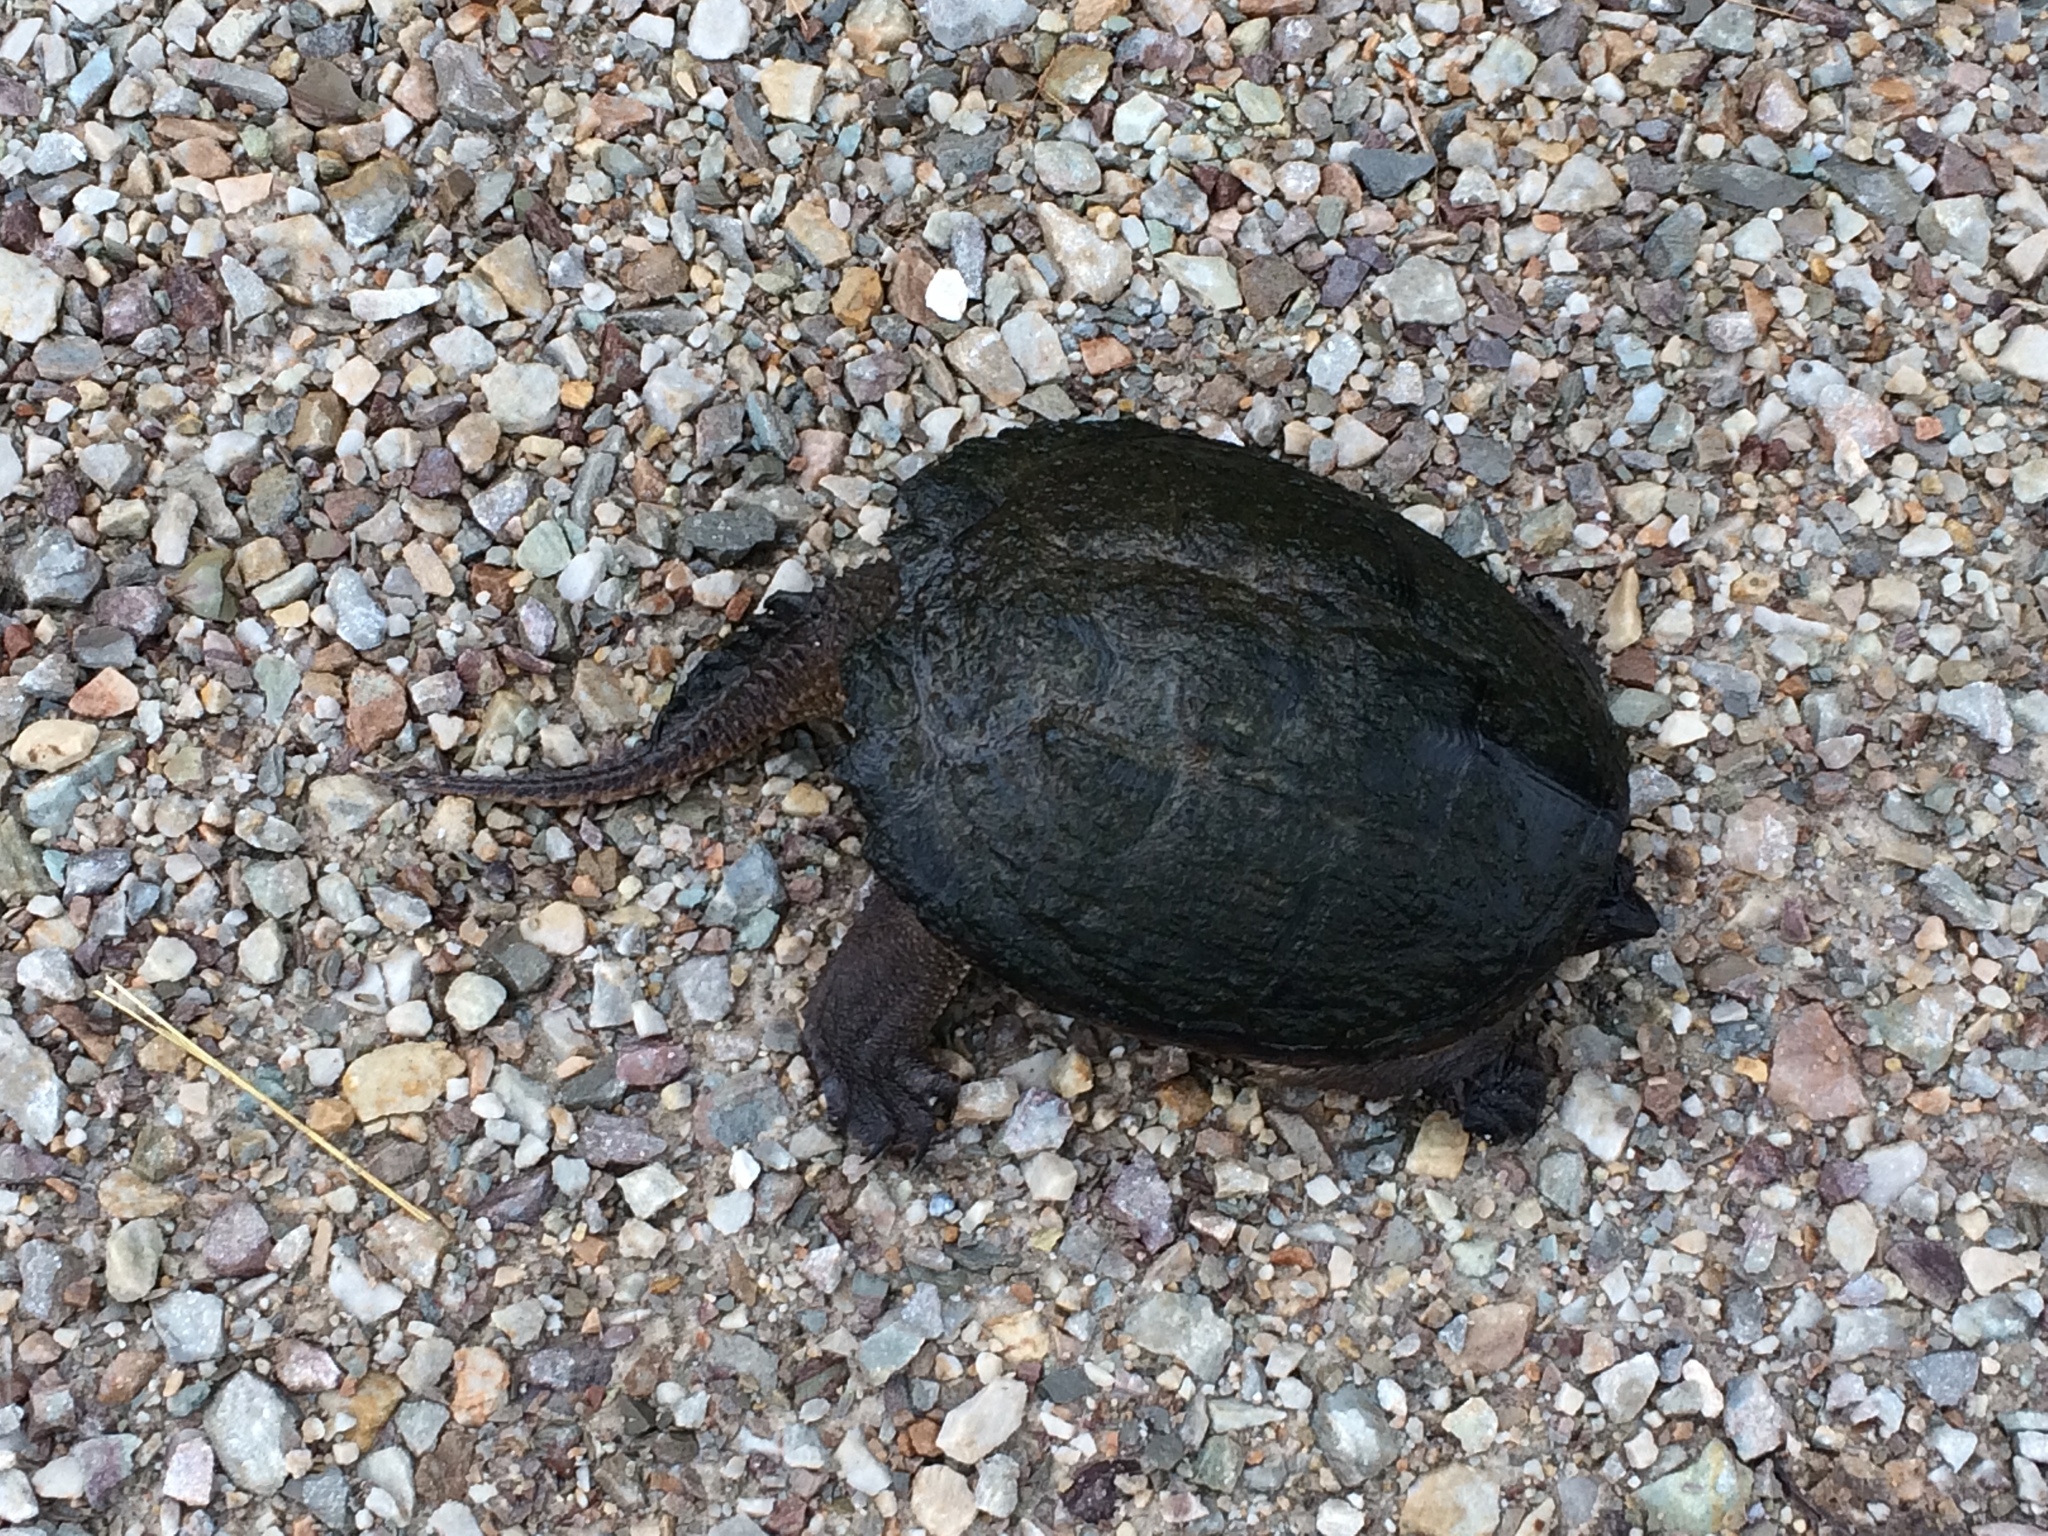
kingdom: Animalia
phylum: Chordata
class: Testudines
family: Chelydridae
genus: Chelydra
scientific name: Chelydra serpentina
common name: Common snapping turtle
